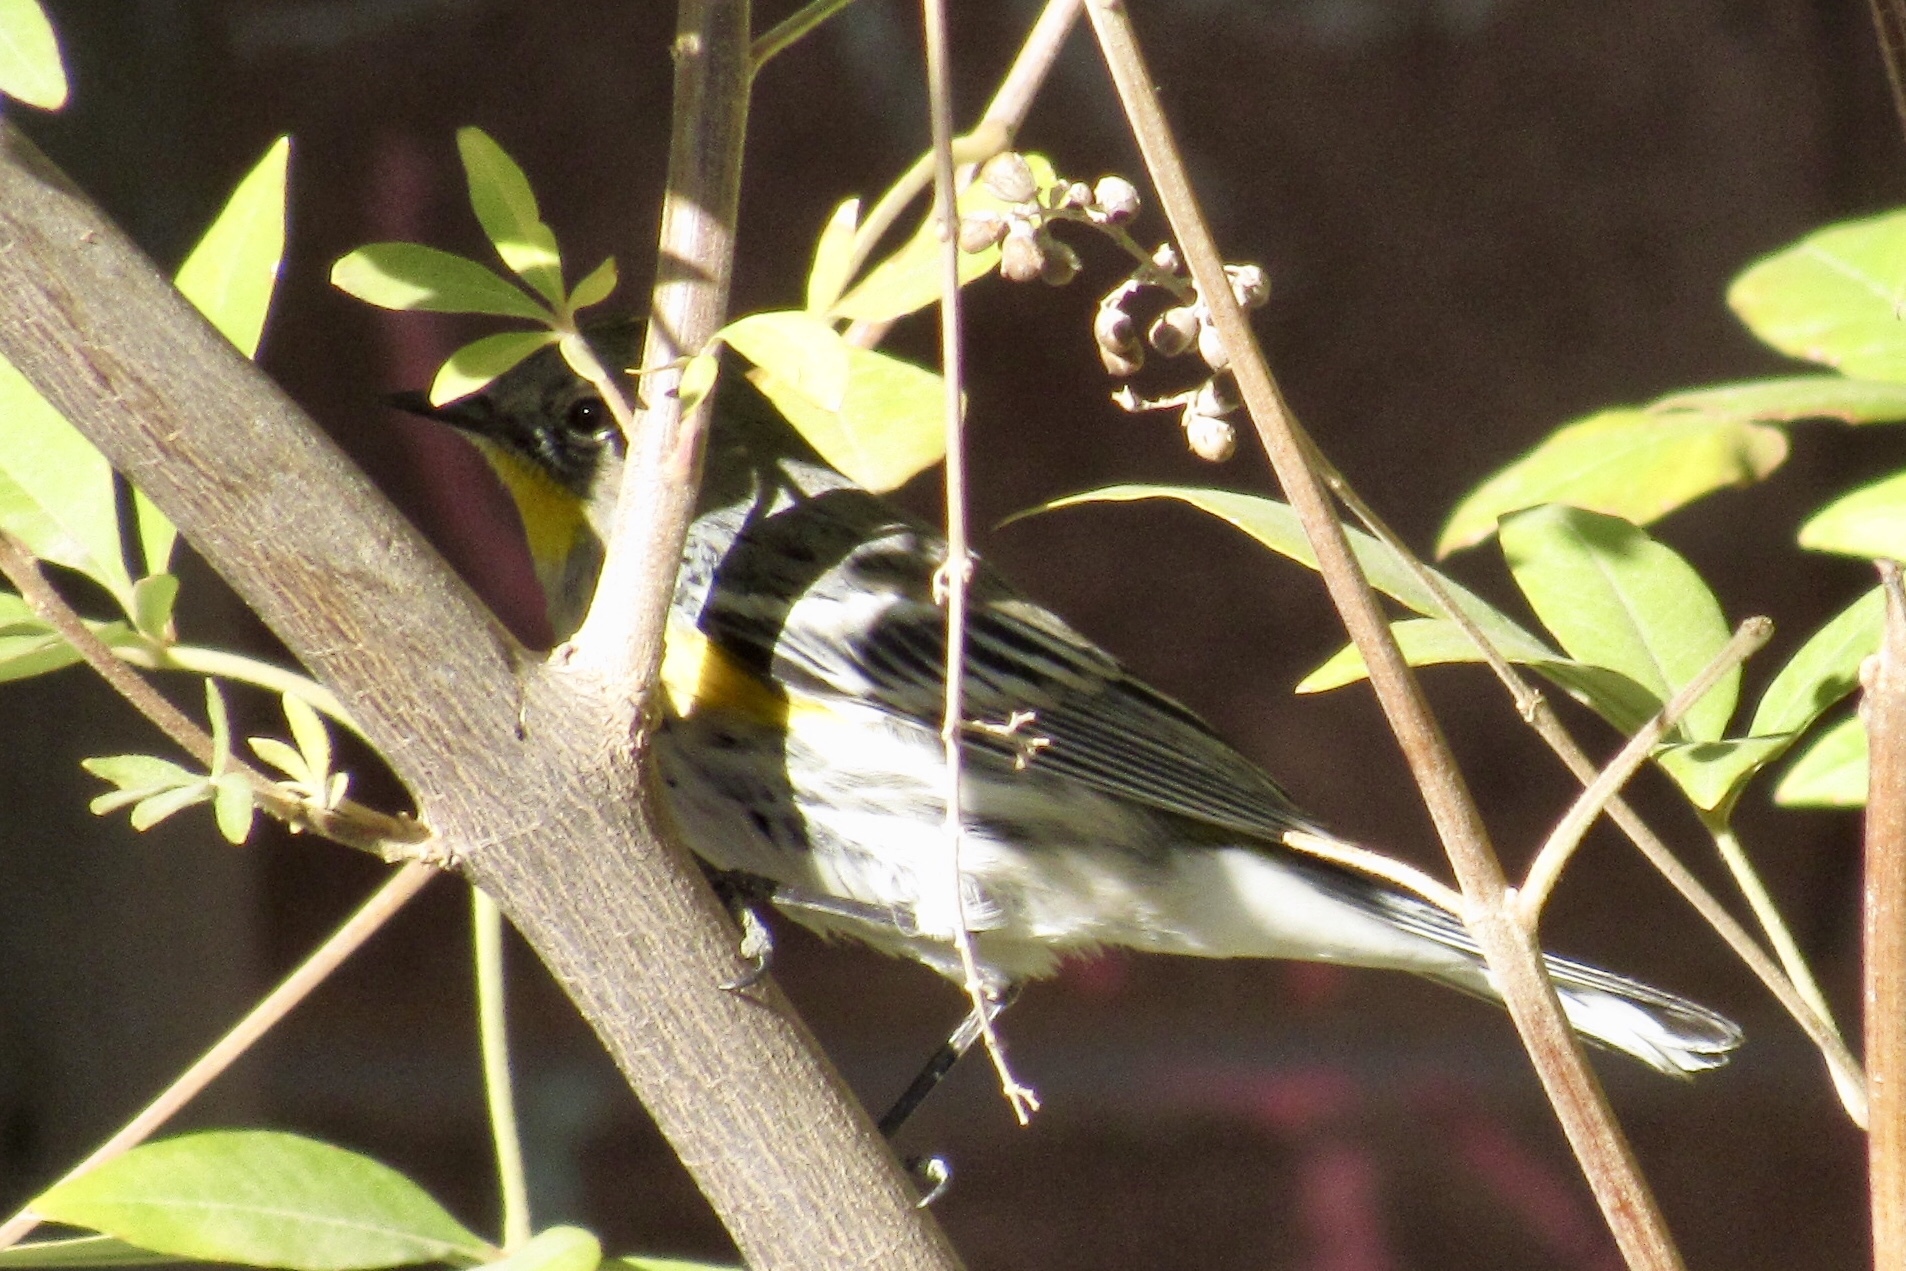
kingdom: Animalia
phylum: Chordata
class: Aves
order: Passeriformes
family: Parulidae
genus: Setophaga
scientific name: Setophaga auduboni
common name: Audubon's warbler
